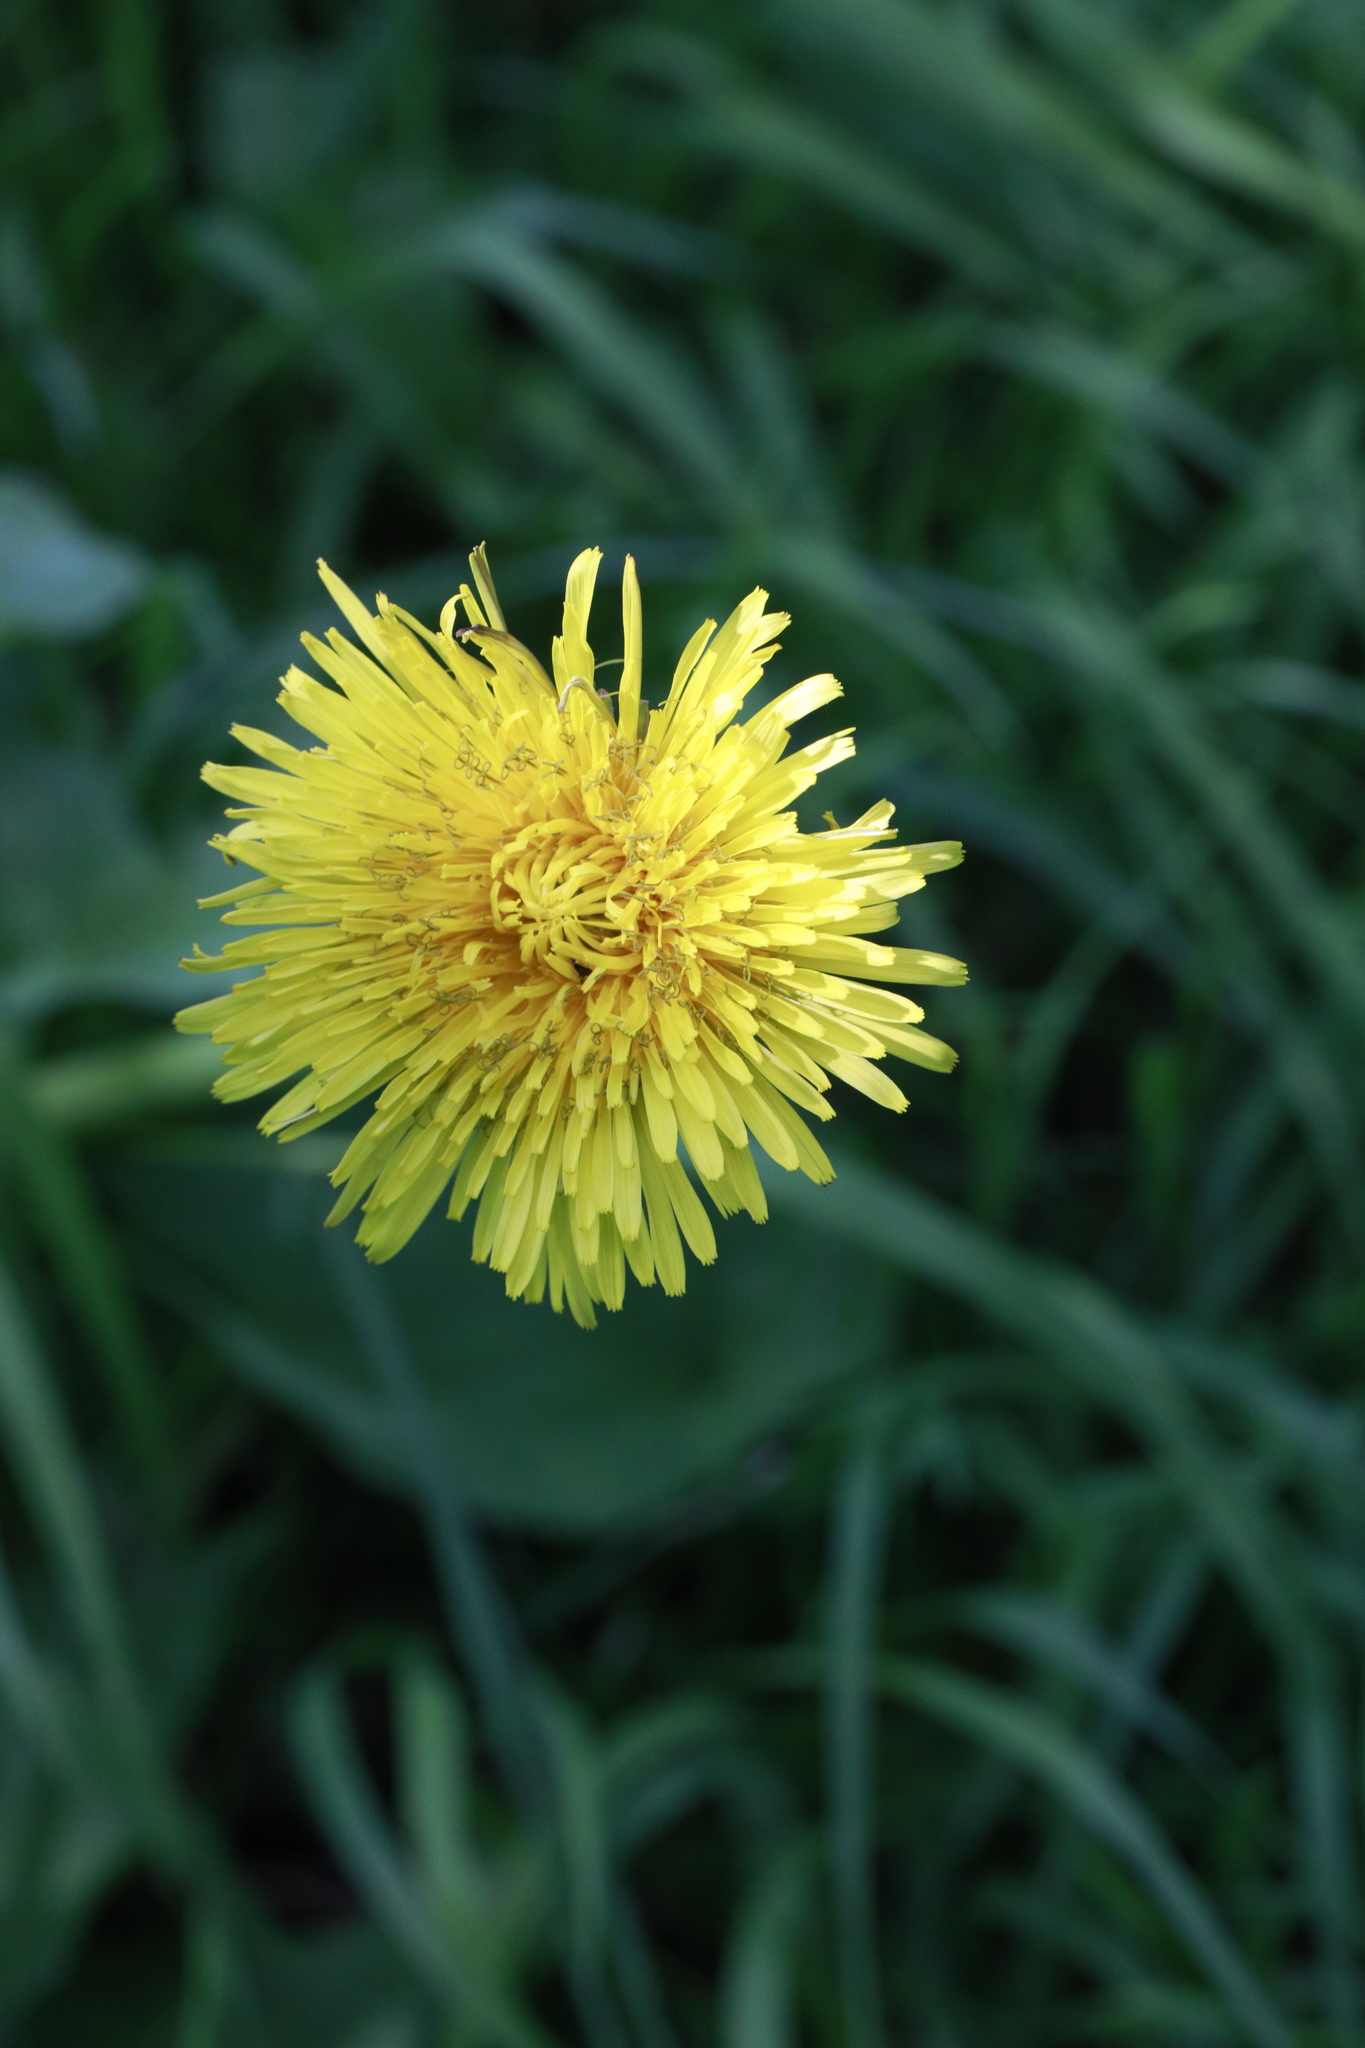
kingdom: Plantae
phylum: Tracheophyta
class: Magnoliopsida
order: Asterales
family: Asteraceae
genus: Taraxacum
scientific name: Taraxacum officinale
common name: Common dandelion
